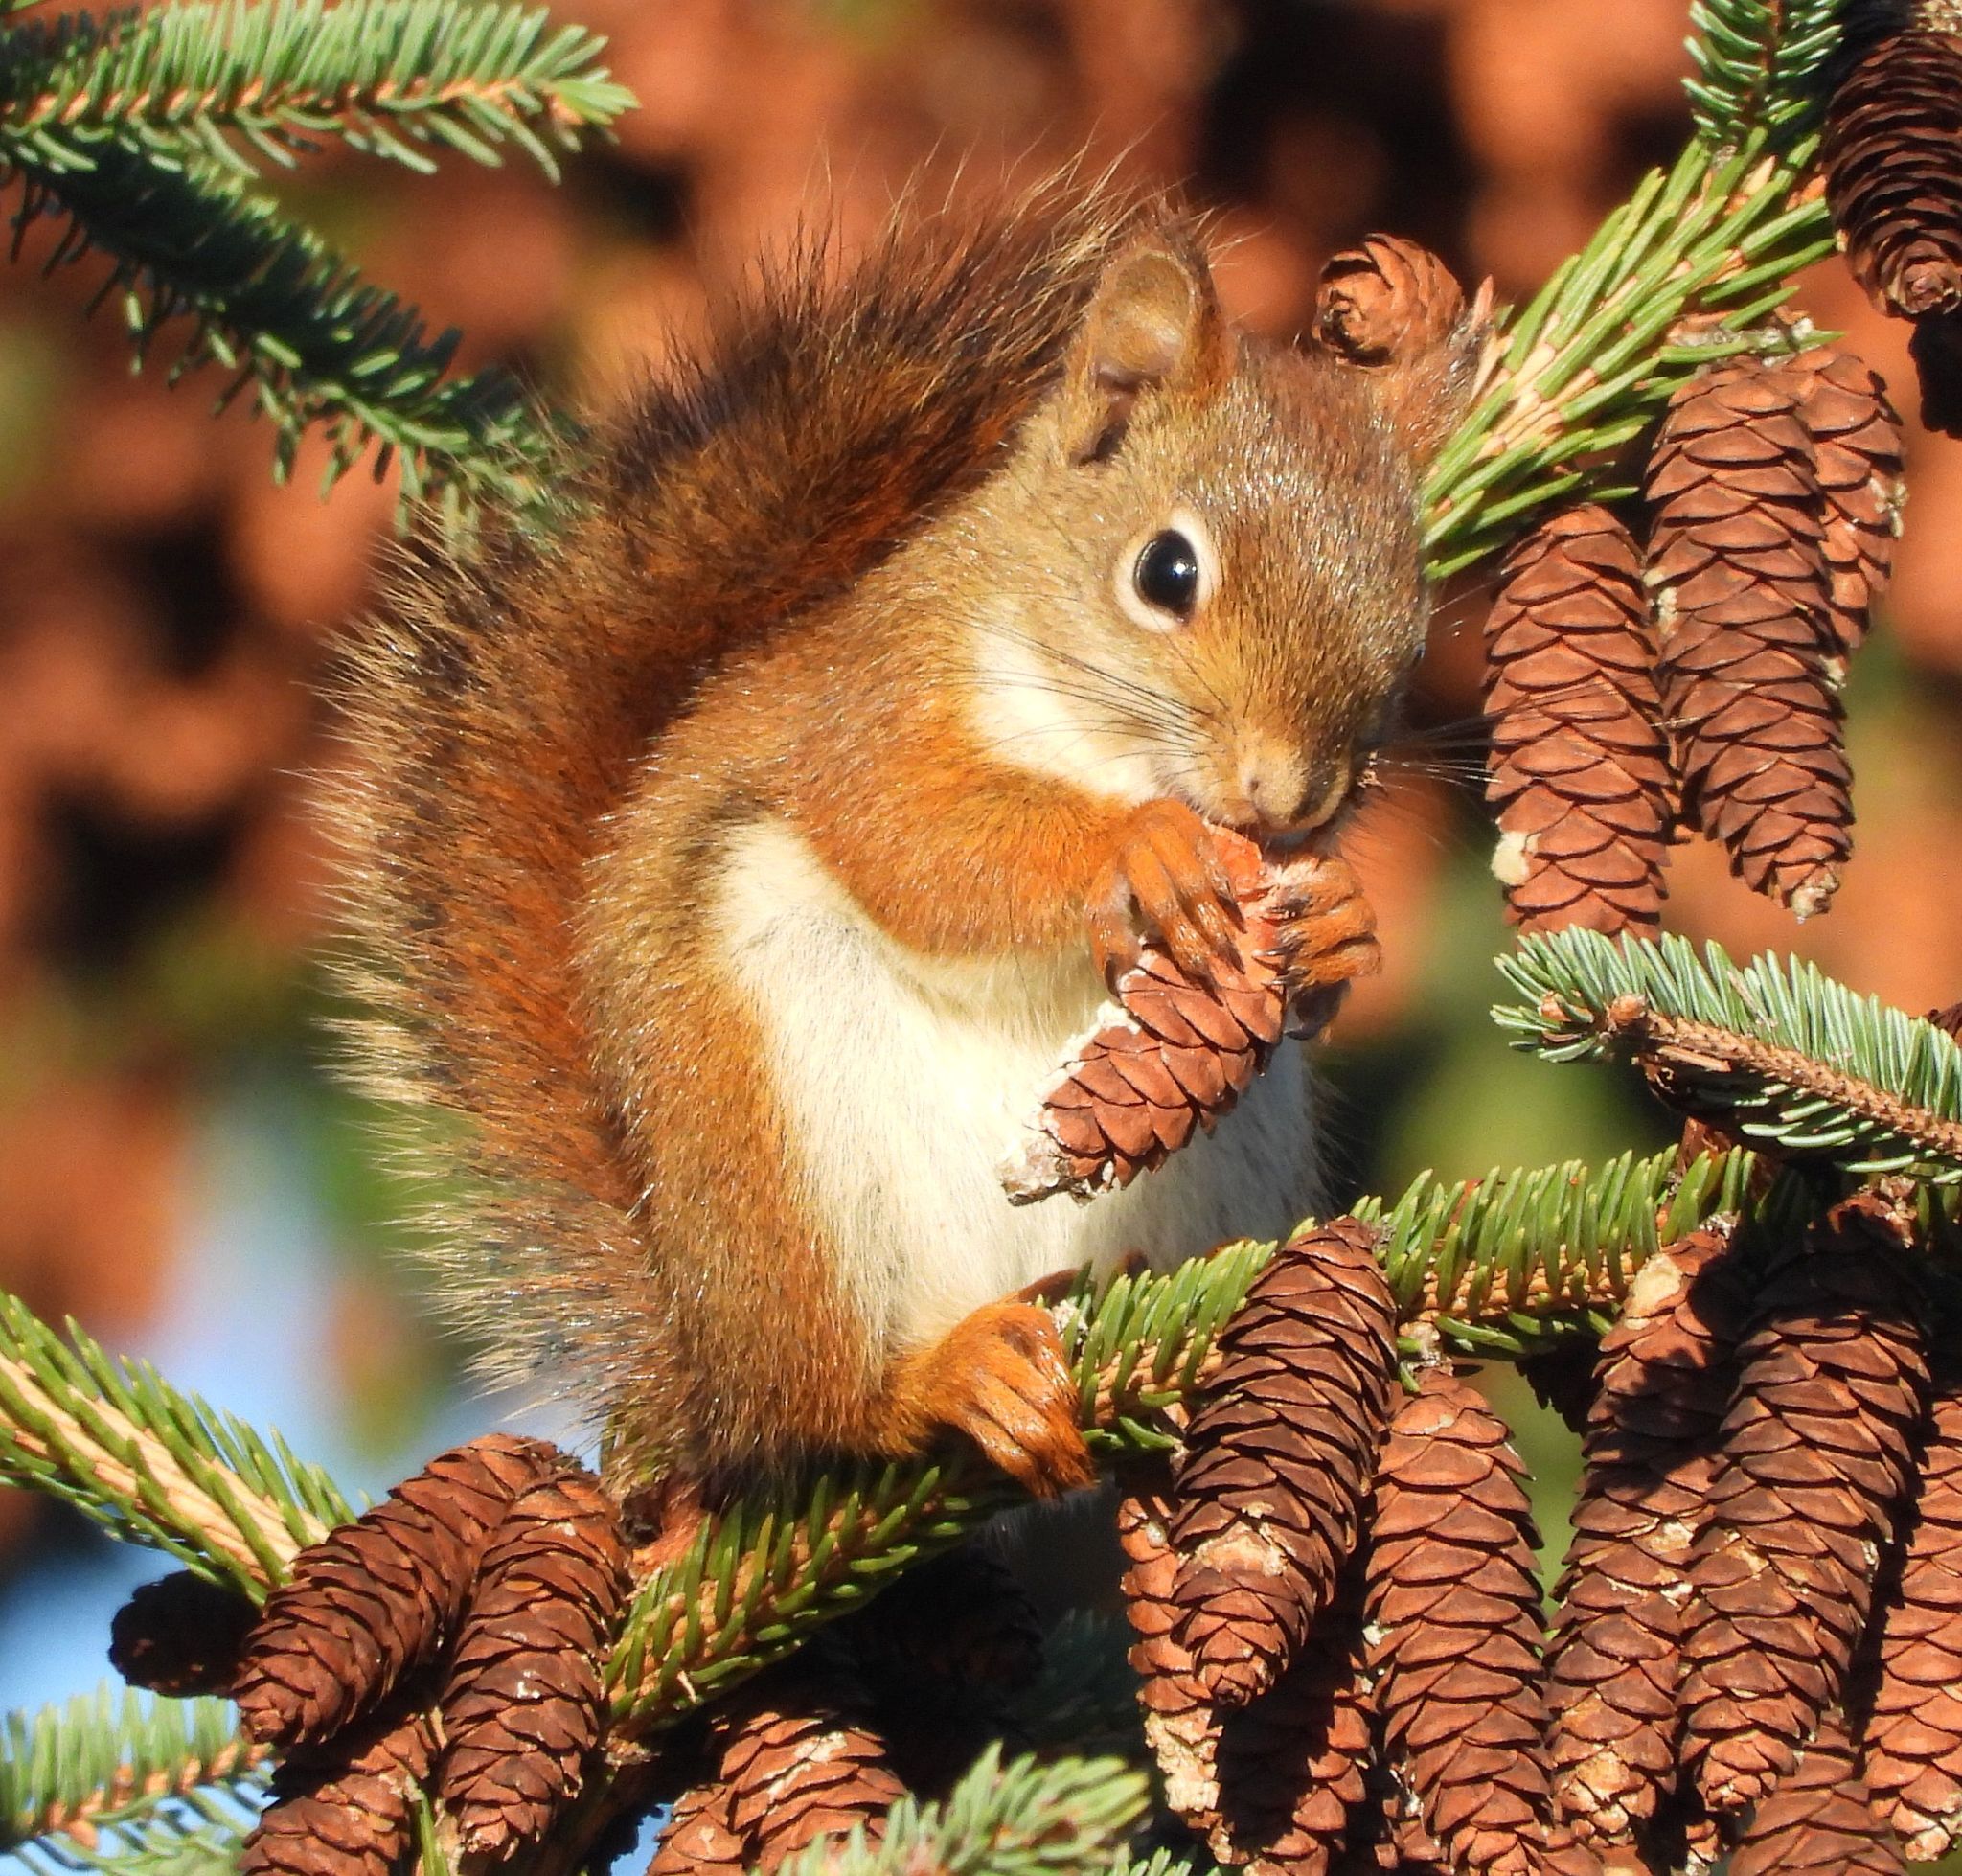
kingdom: Animalia
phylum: Chordata
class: Mammalia
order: Rodentia
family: Sciuridae
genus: Tamiasciurus
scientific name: Tamiasciurus hudsonicus
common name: Red squirrel
